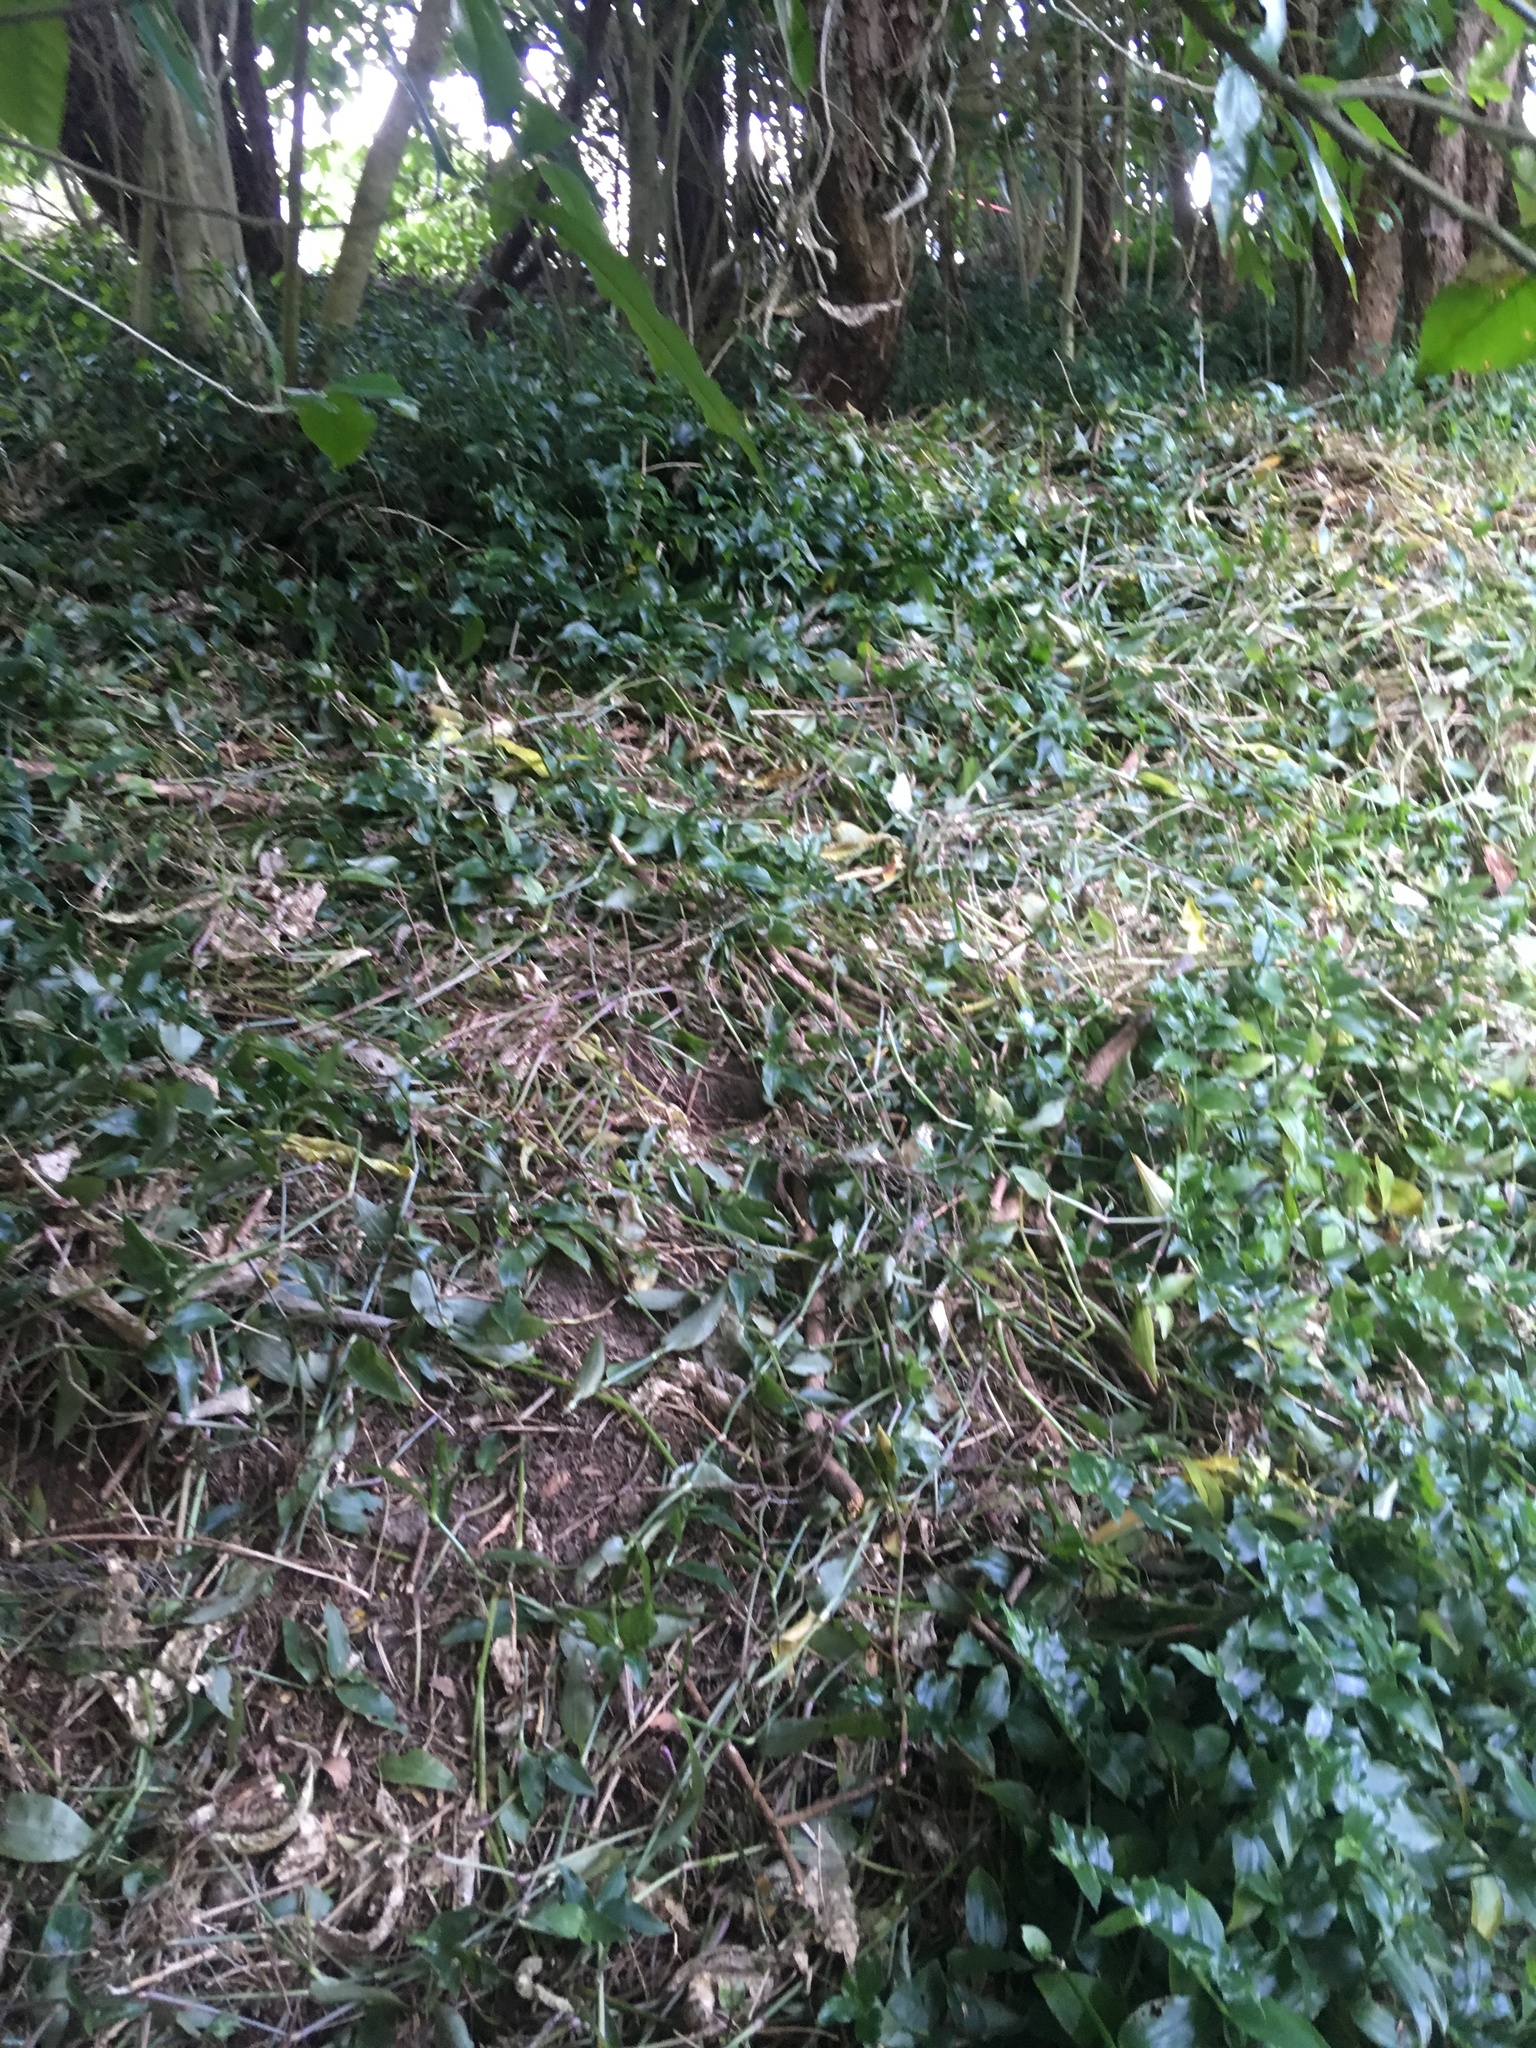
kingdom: Plantae
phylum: Tracheophyta
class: Liliopsida
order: Commelinales
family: Commelinaceae
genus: Tradescantia
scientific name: Tradescantia fluminensis
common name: Wandering-jew
